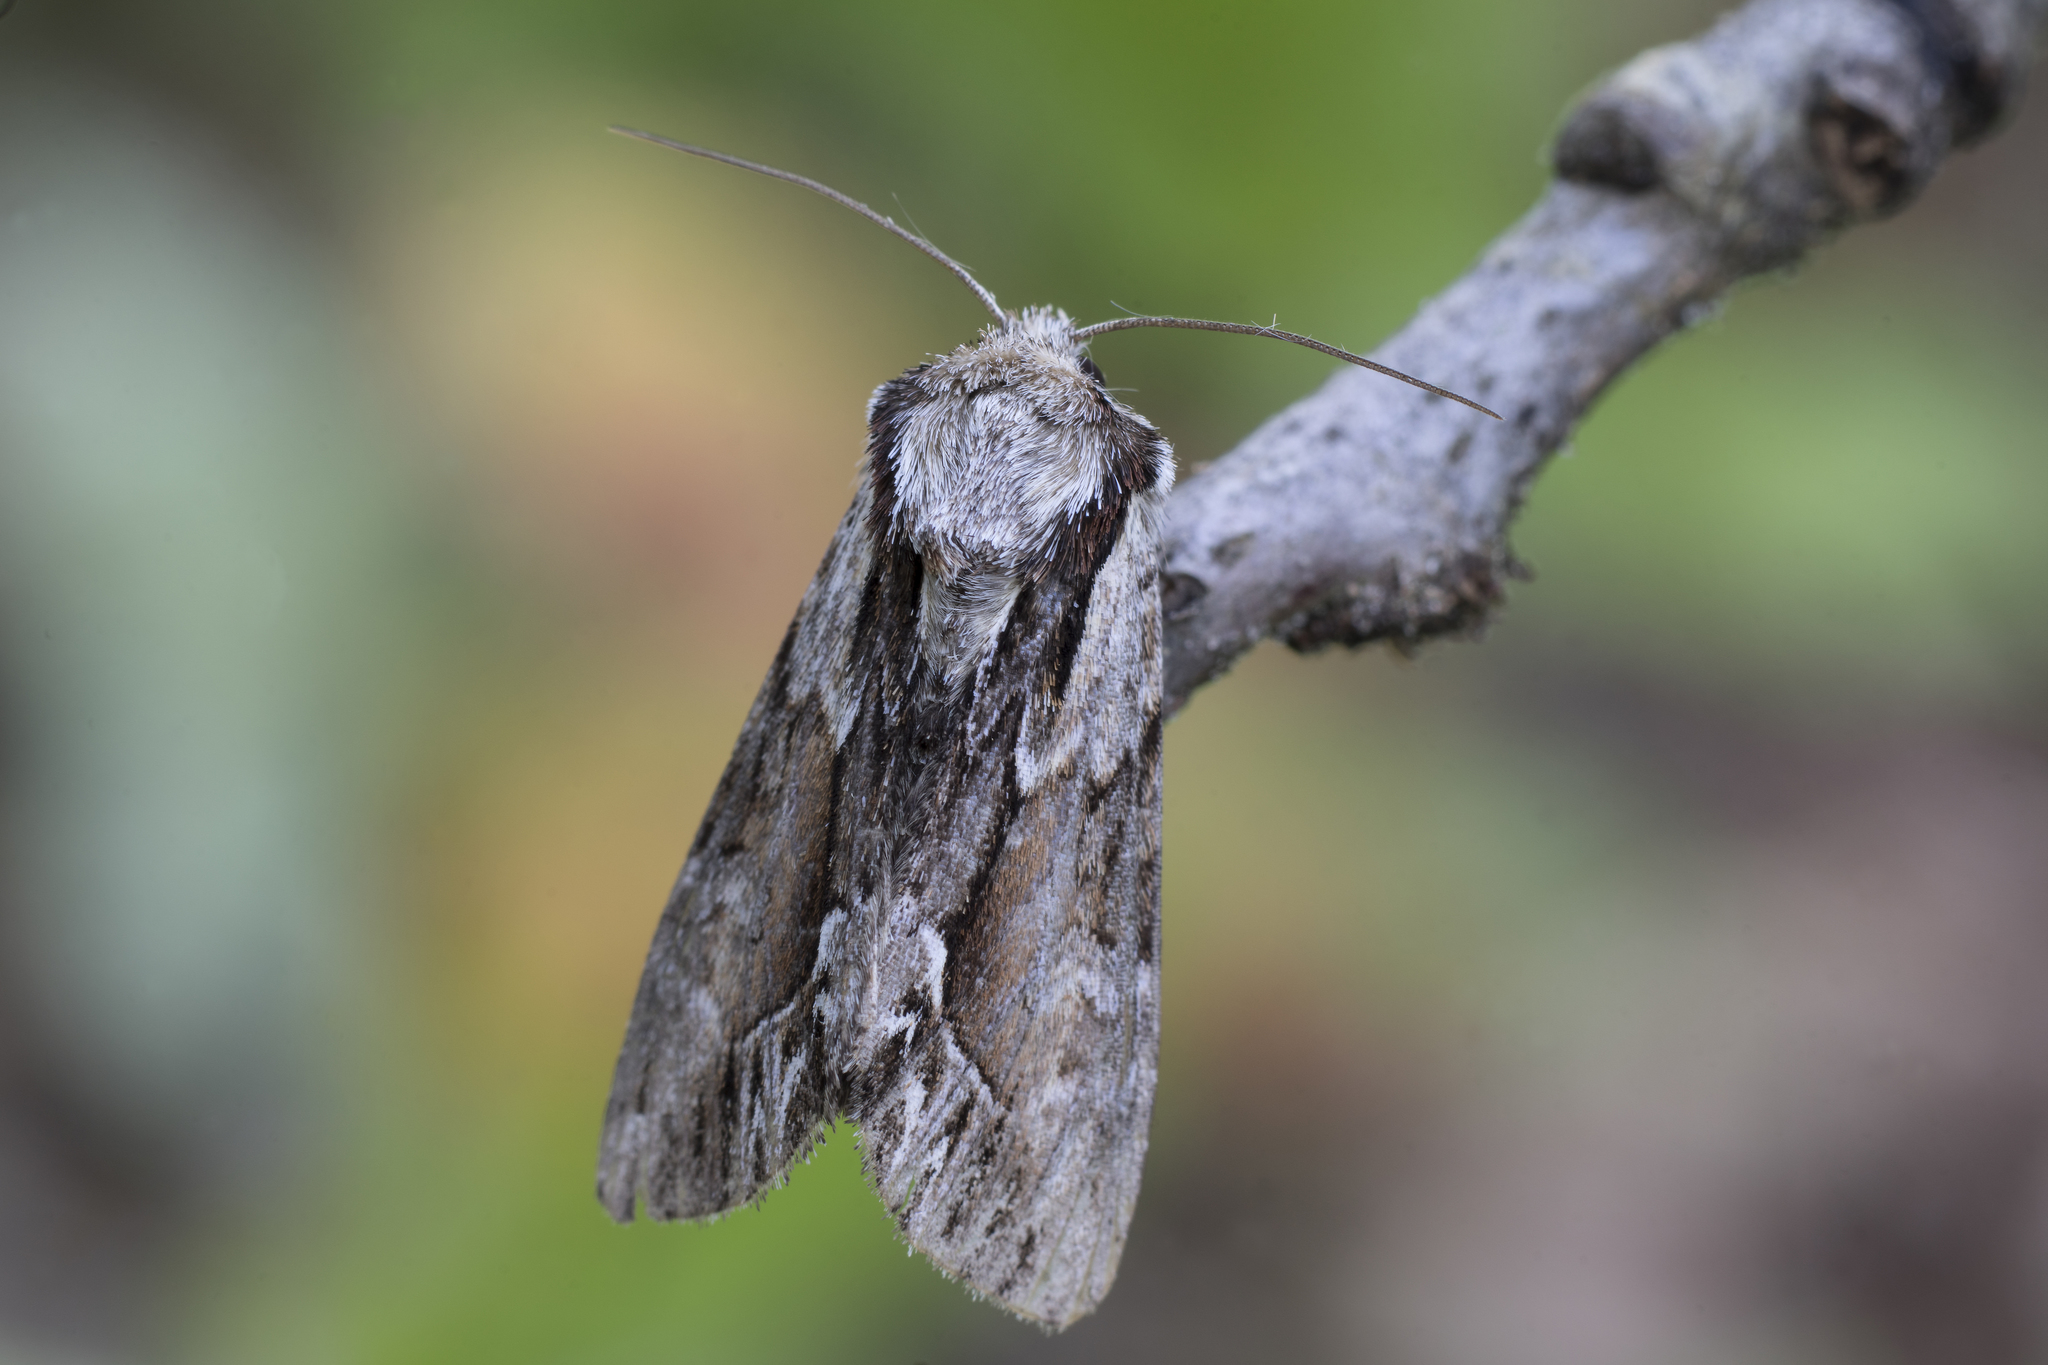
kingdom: Animalia
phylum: Arthropoda
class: Insecta
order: Lepidoptera
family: Noctuidae
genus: Hyppa
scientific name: Hyppa rectilinea
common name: Saxon
